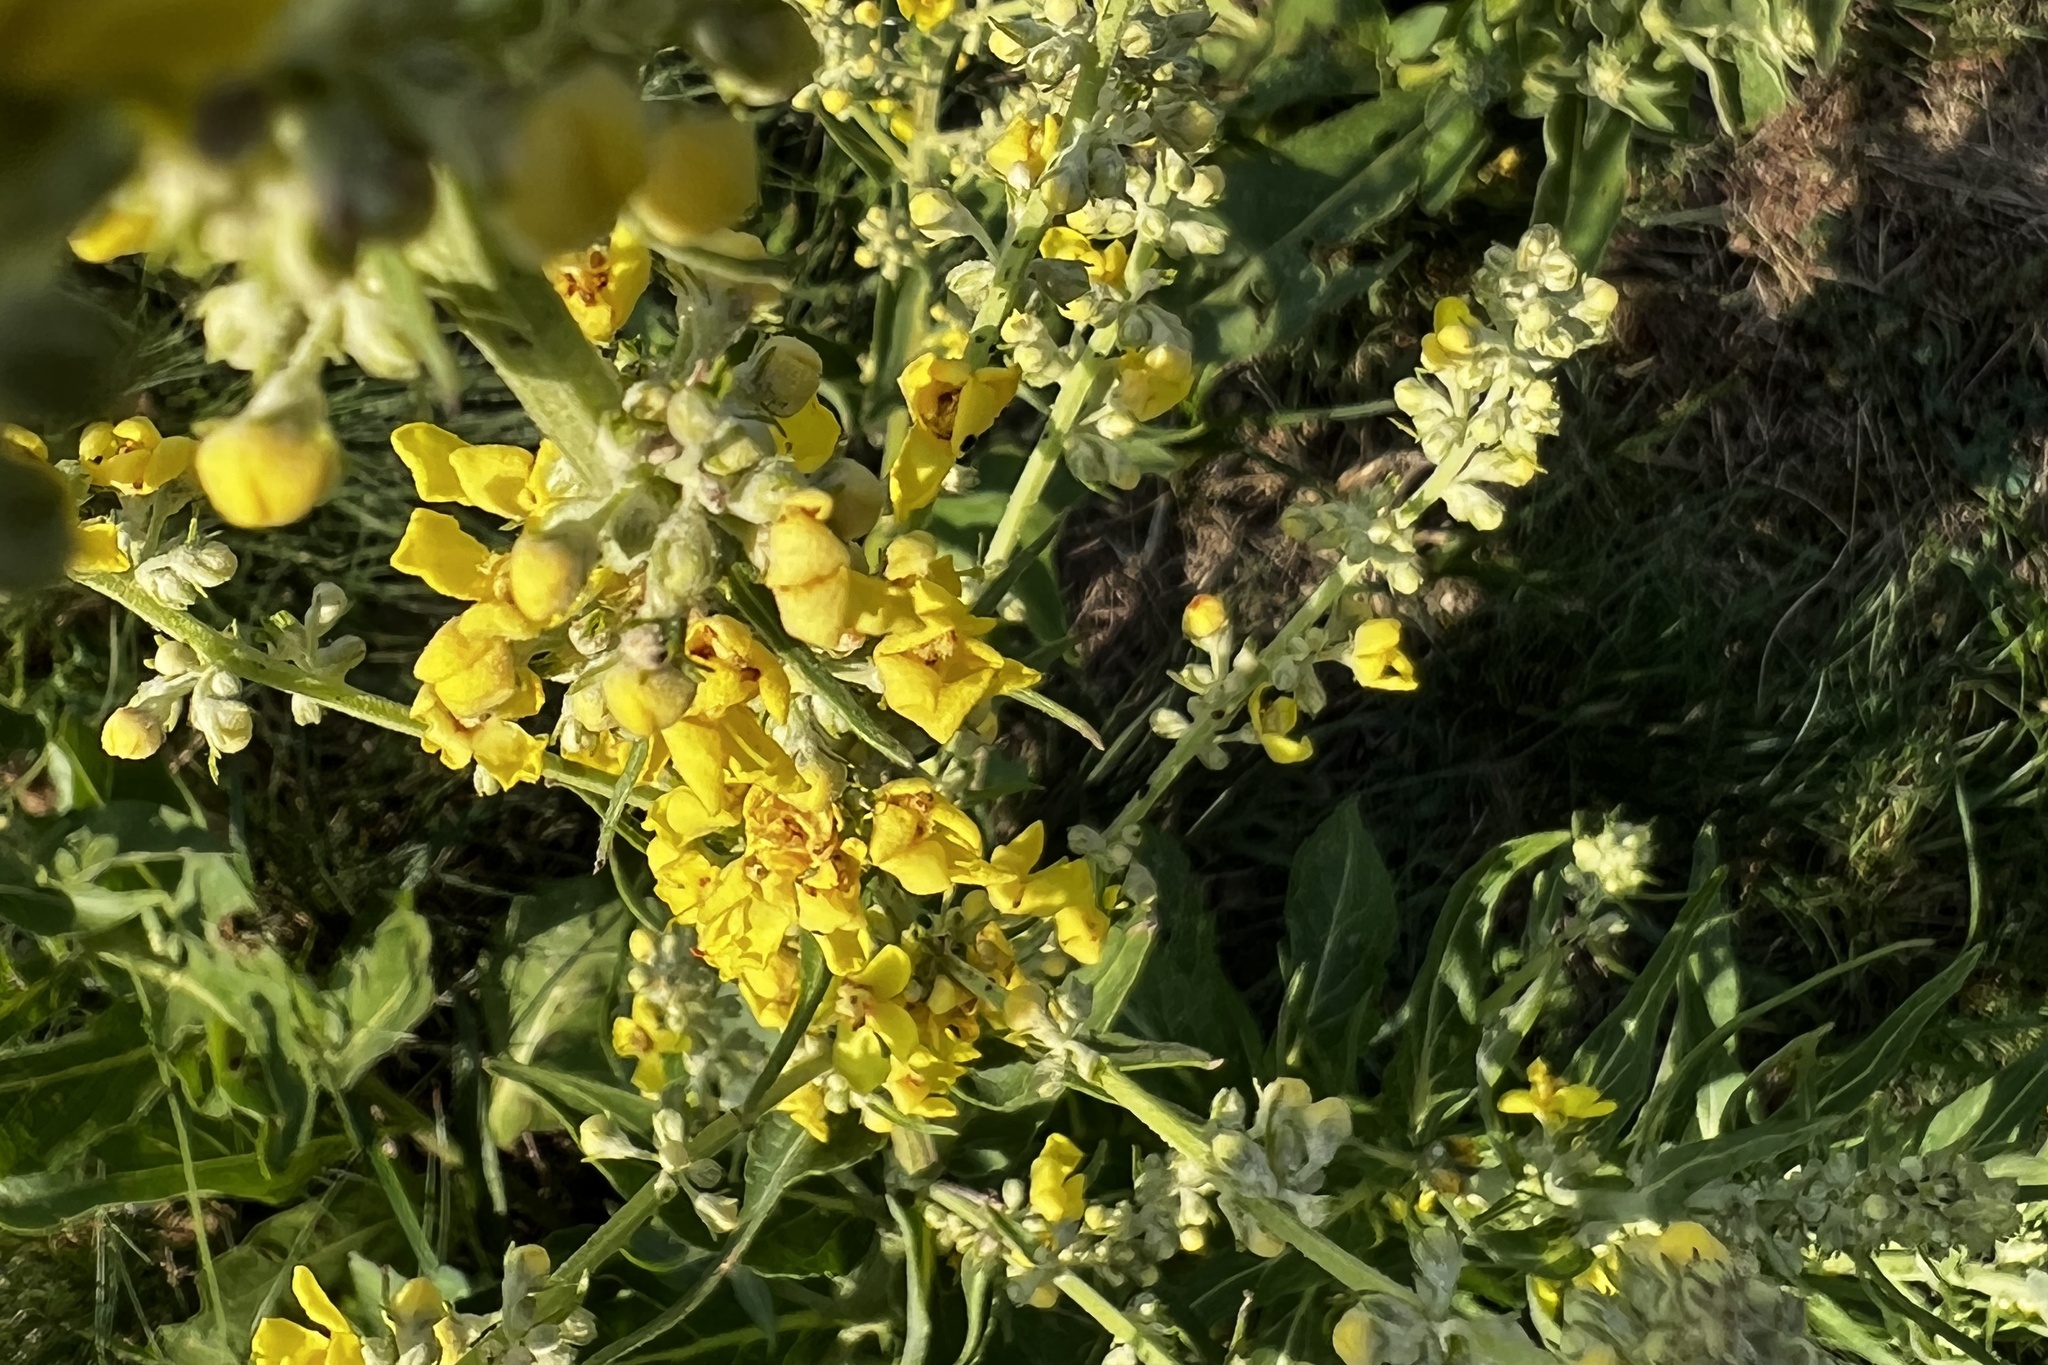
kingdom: Plantae
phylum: Tracheophyta
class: Magnoliopsida
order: Lamiales
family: Scrophulariaceae
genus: Verbascum
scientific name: Verbascum lychnitis
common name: White mullein
